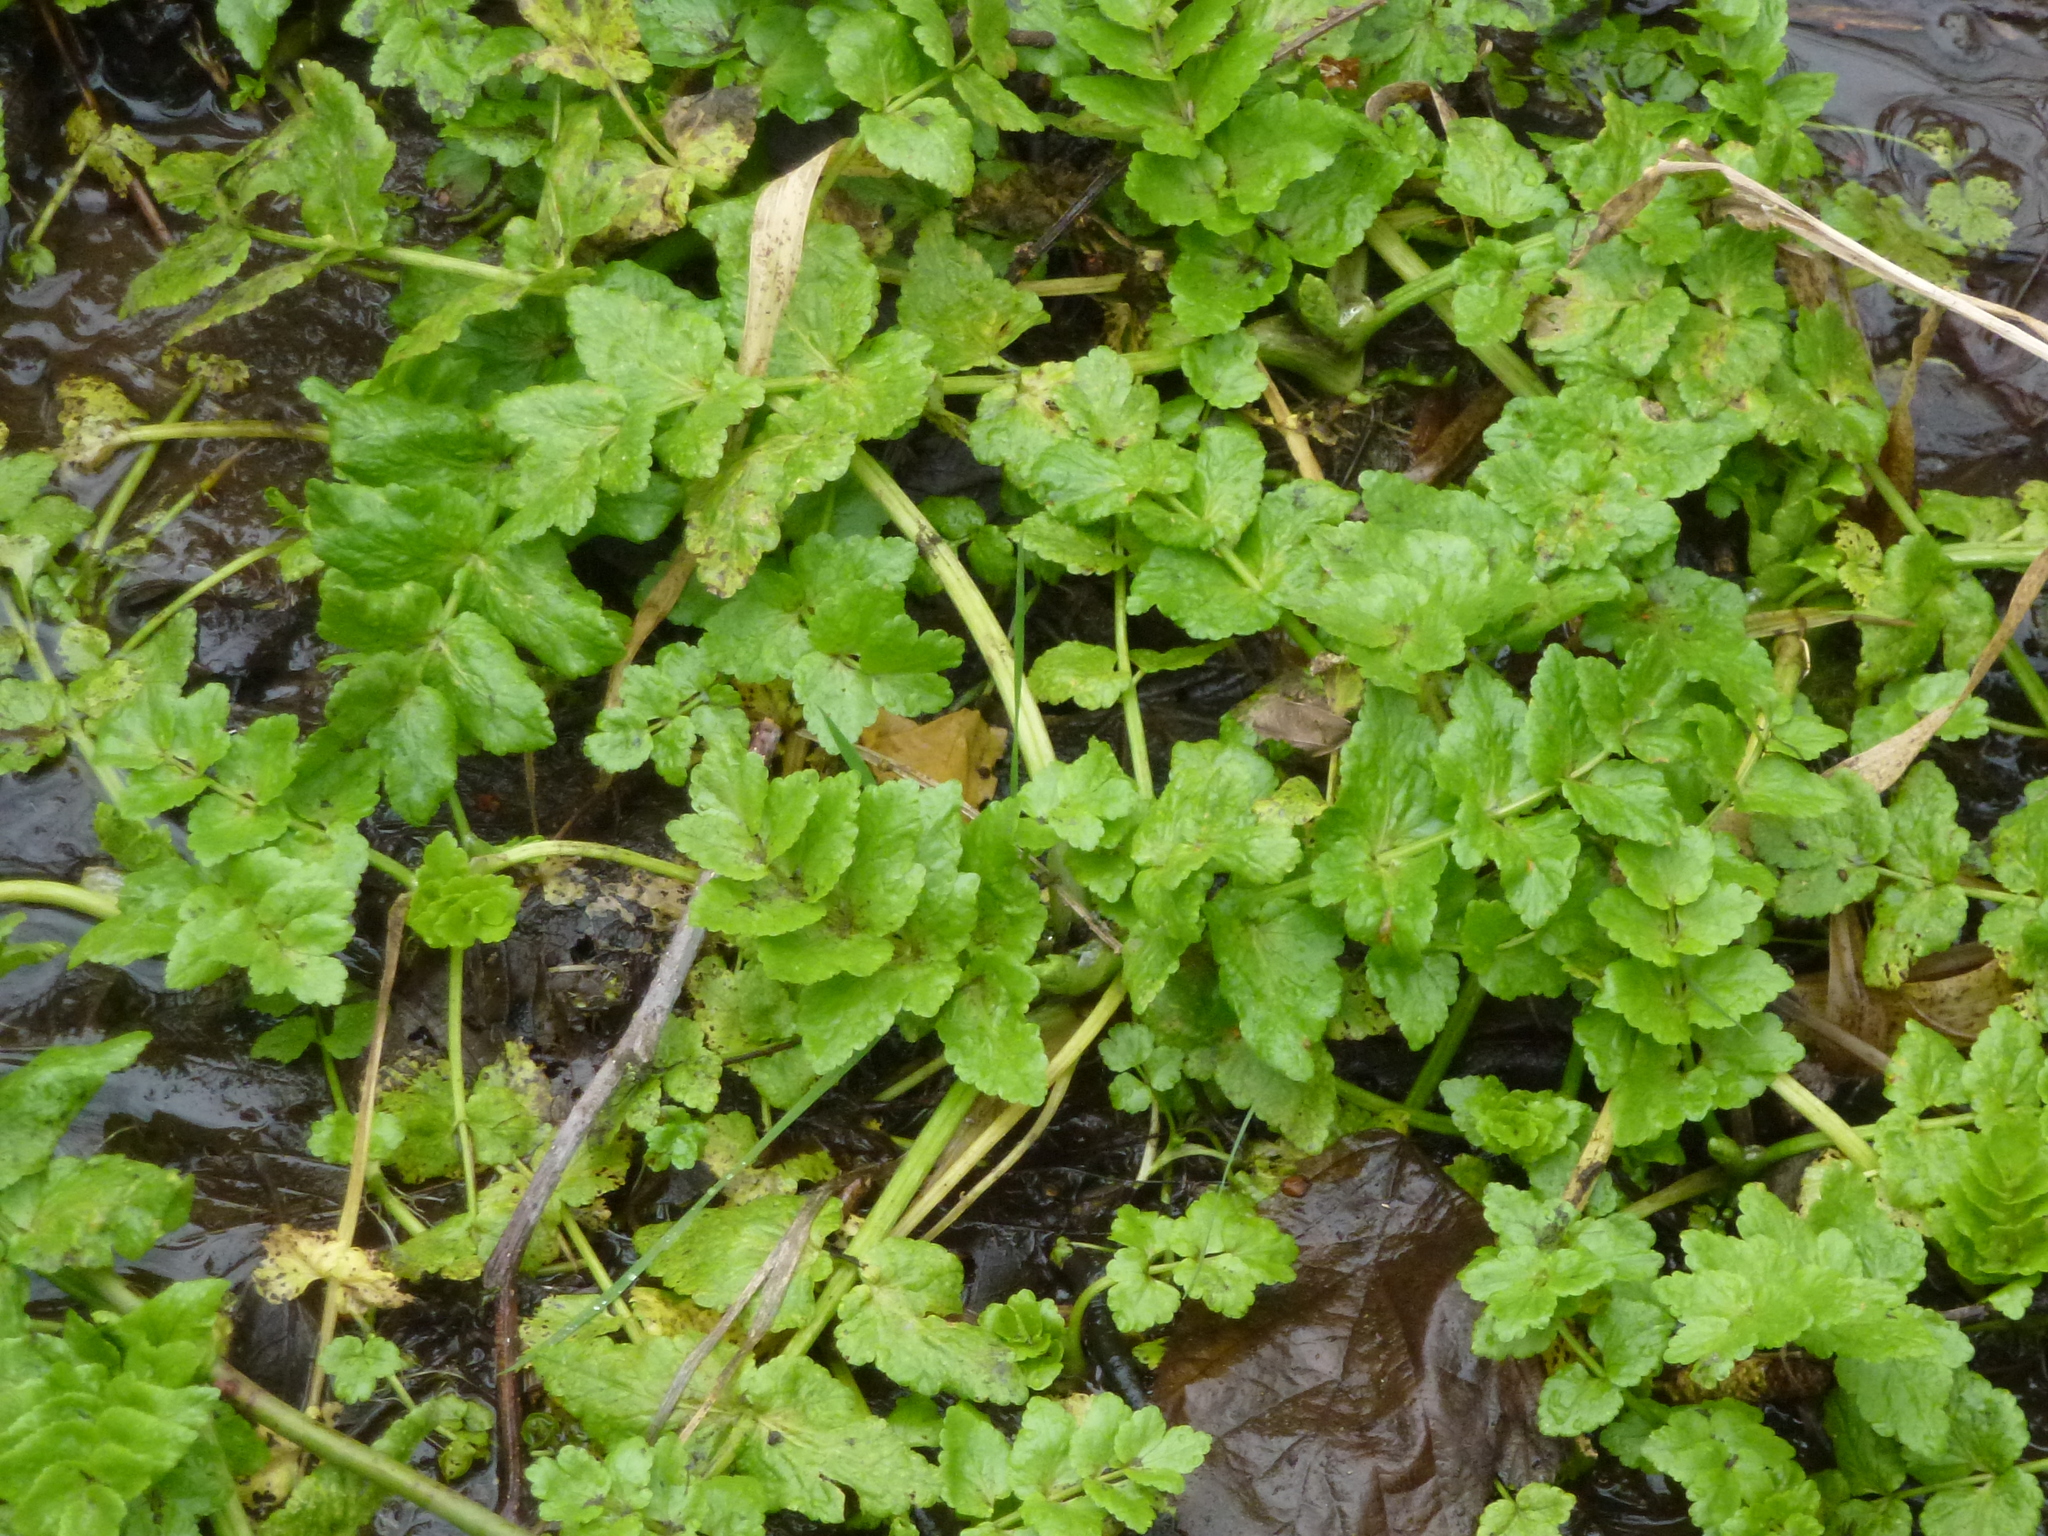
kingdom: Plantae
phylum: Tracheophyta
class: Magnoliopsida
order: Apiales
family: Apiaceae
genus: Helosciadium
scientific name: Helosciadium nodiflorum
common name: Fool's-watercress
